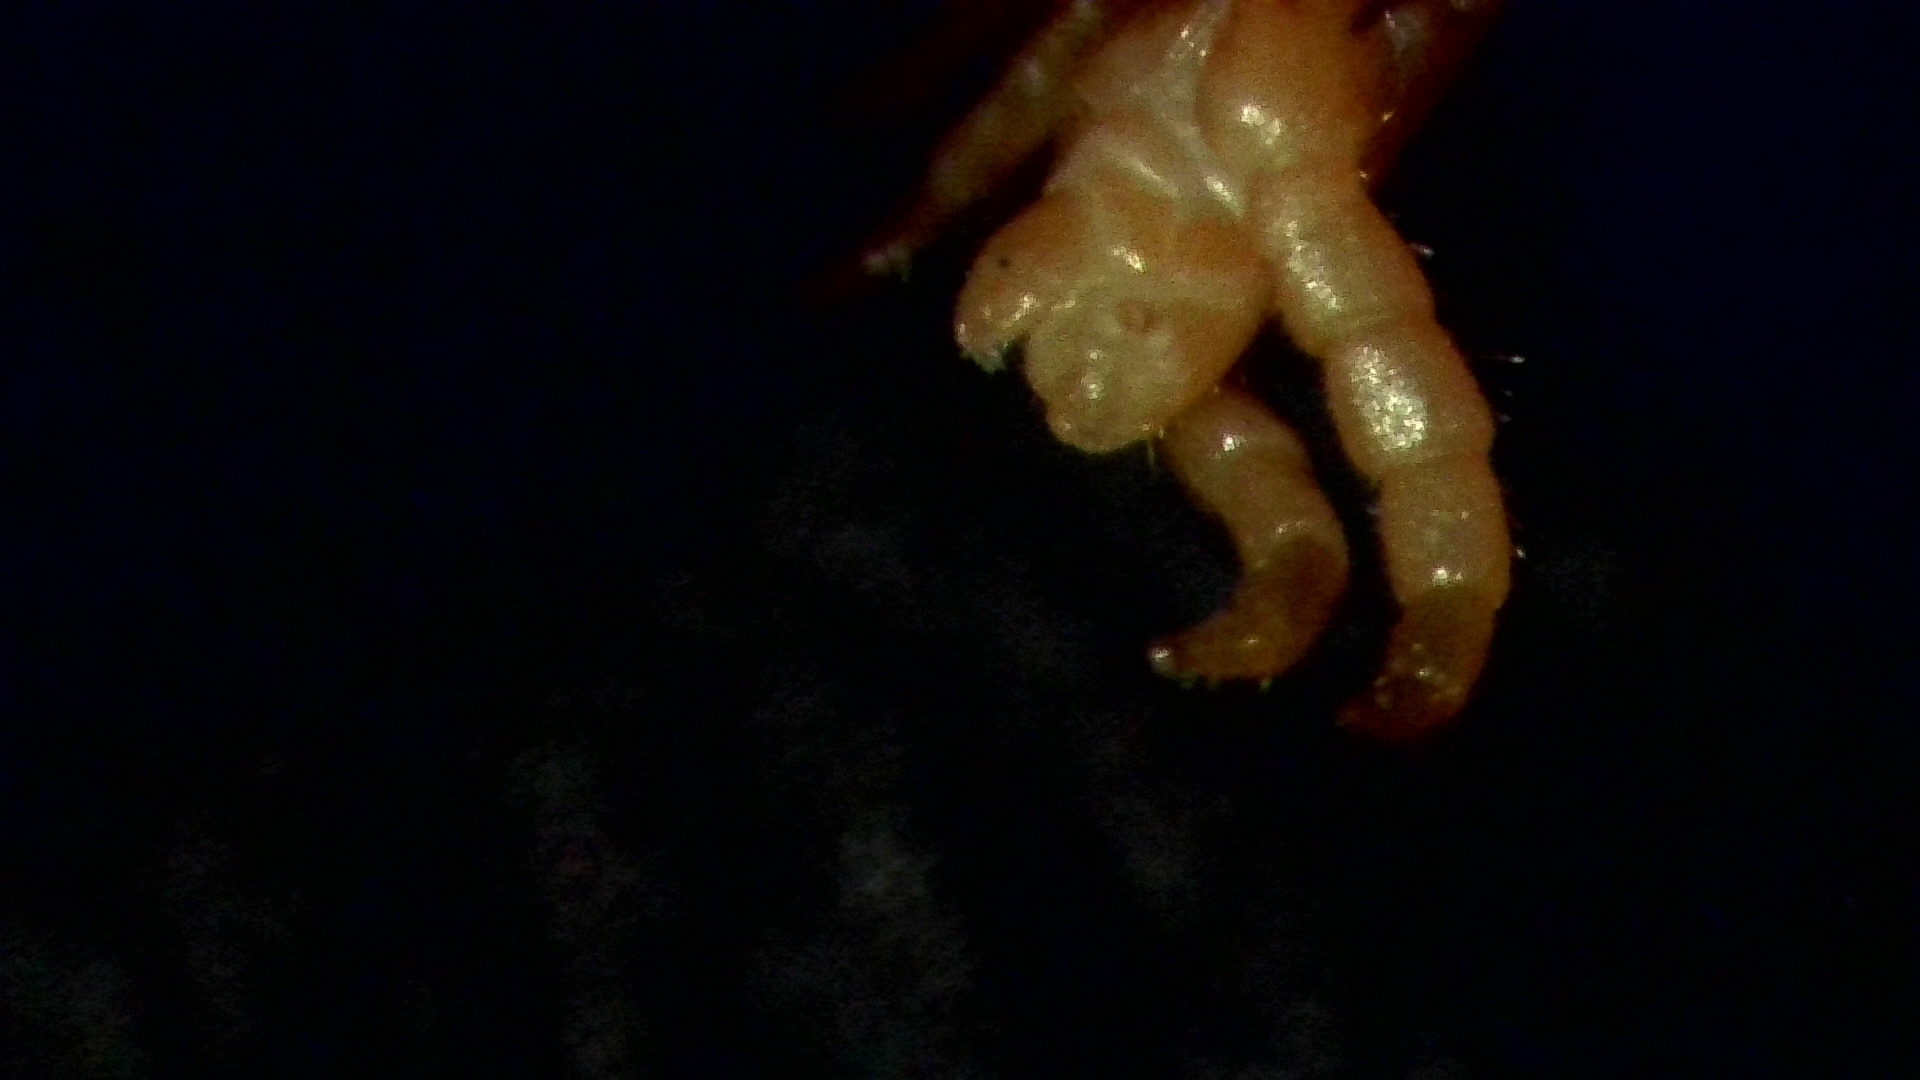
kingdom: Animalia
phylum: Arthropoda
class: Chilopoda
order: Geophilomorpha
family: Geophilidae
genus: Geophilus
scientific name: Geophilus easoni
